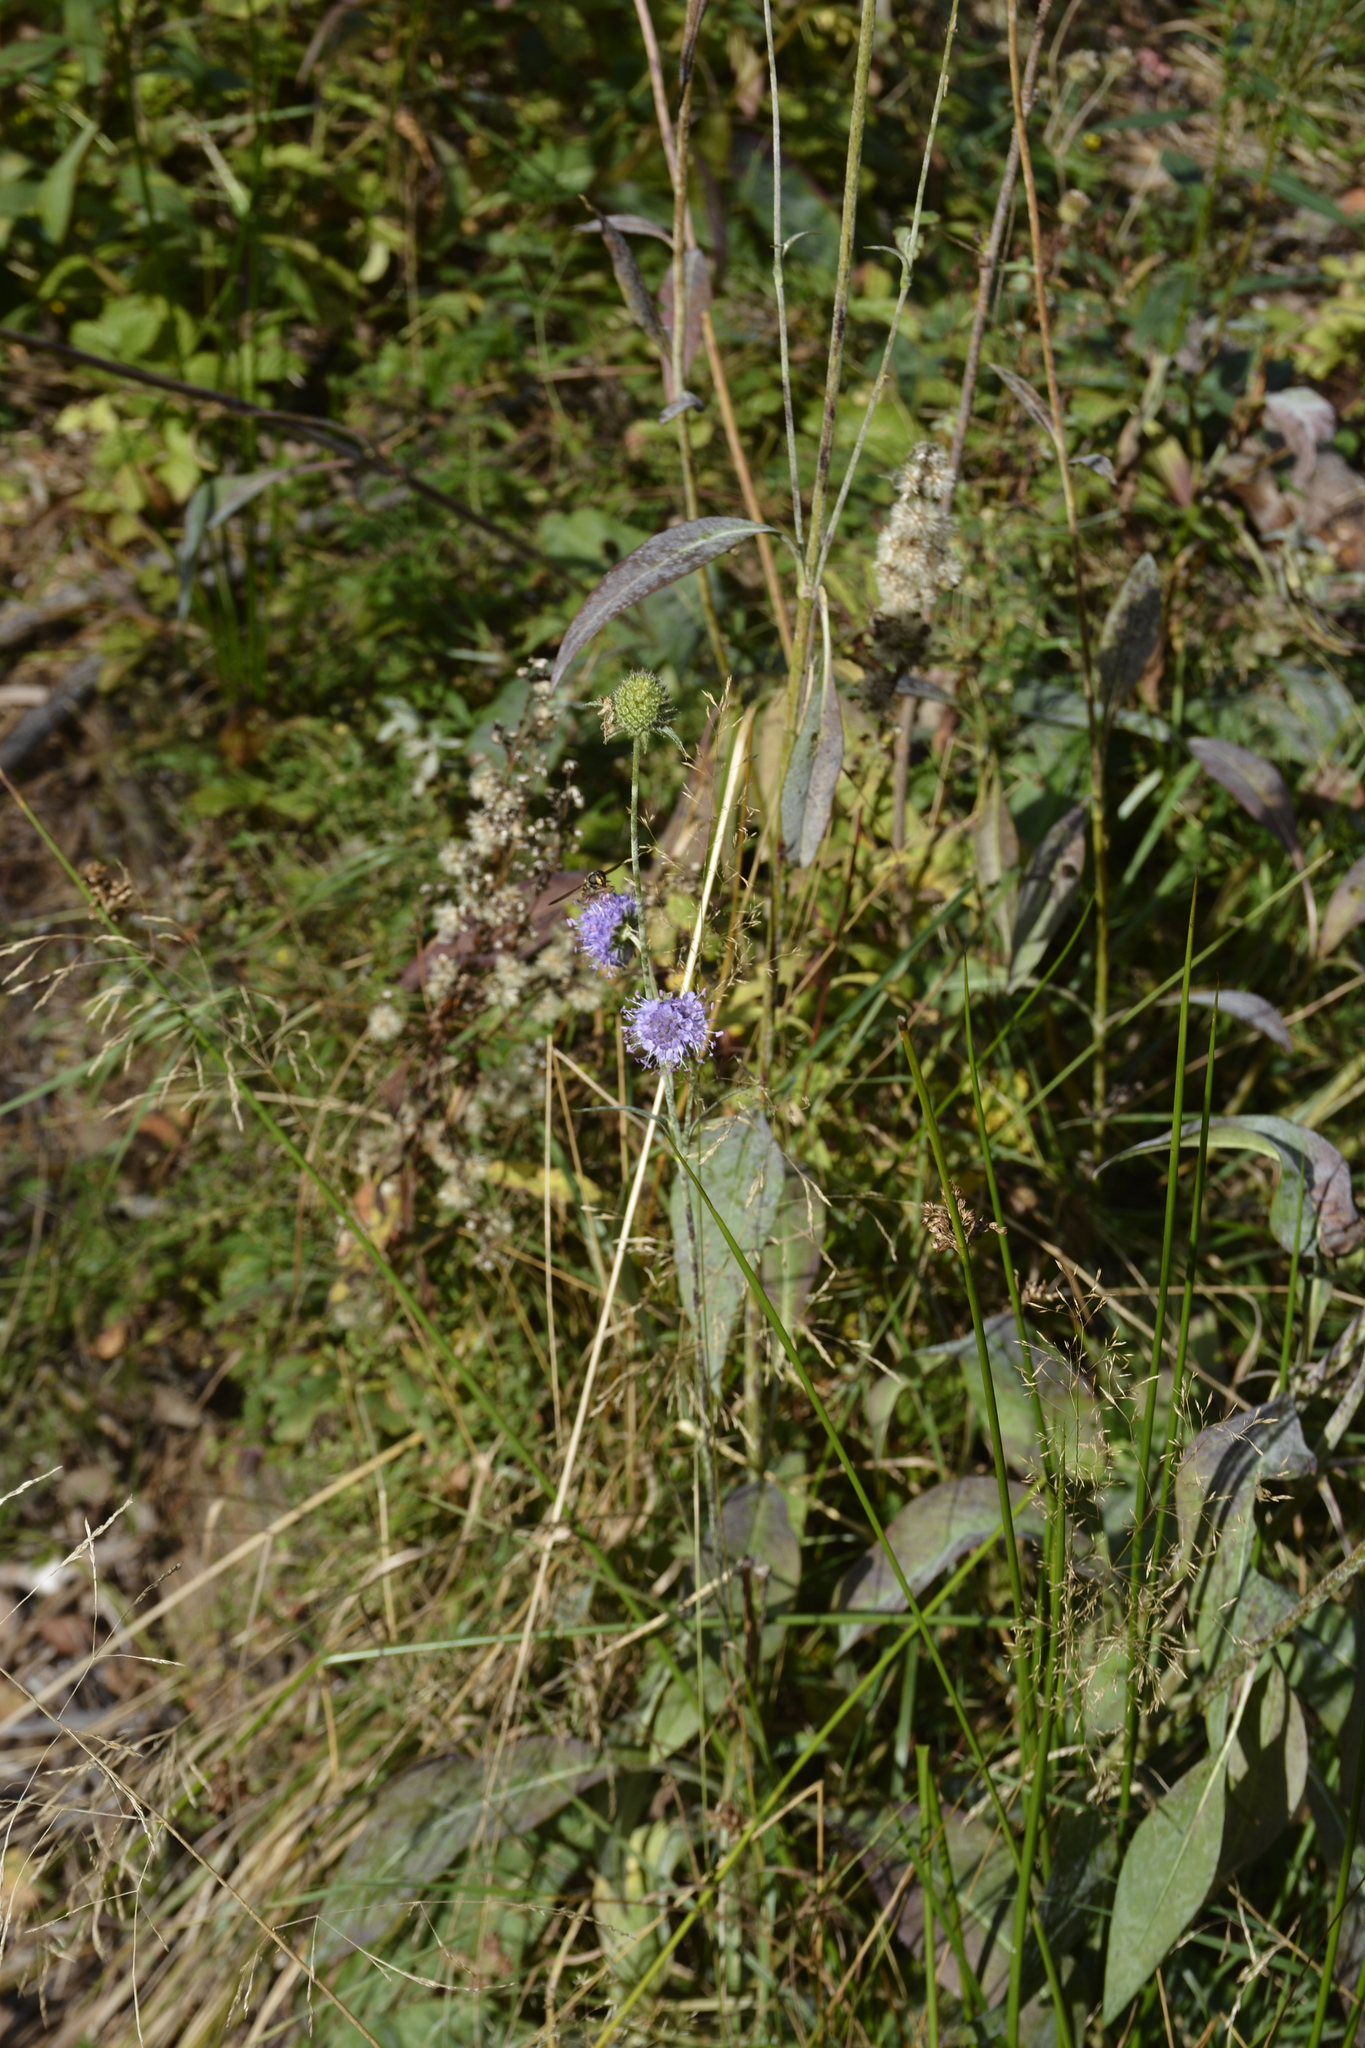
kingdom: Plantae
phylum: Tracheophyta
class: Magnoliopsida
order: Dipsacales
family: Caprifoliaceae
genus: Succisa
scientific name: Succisa pratensis
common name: Devil's-bit
